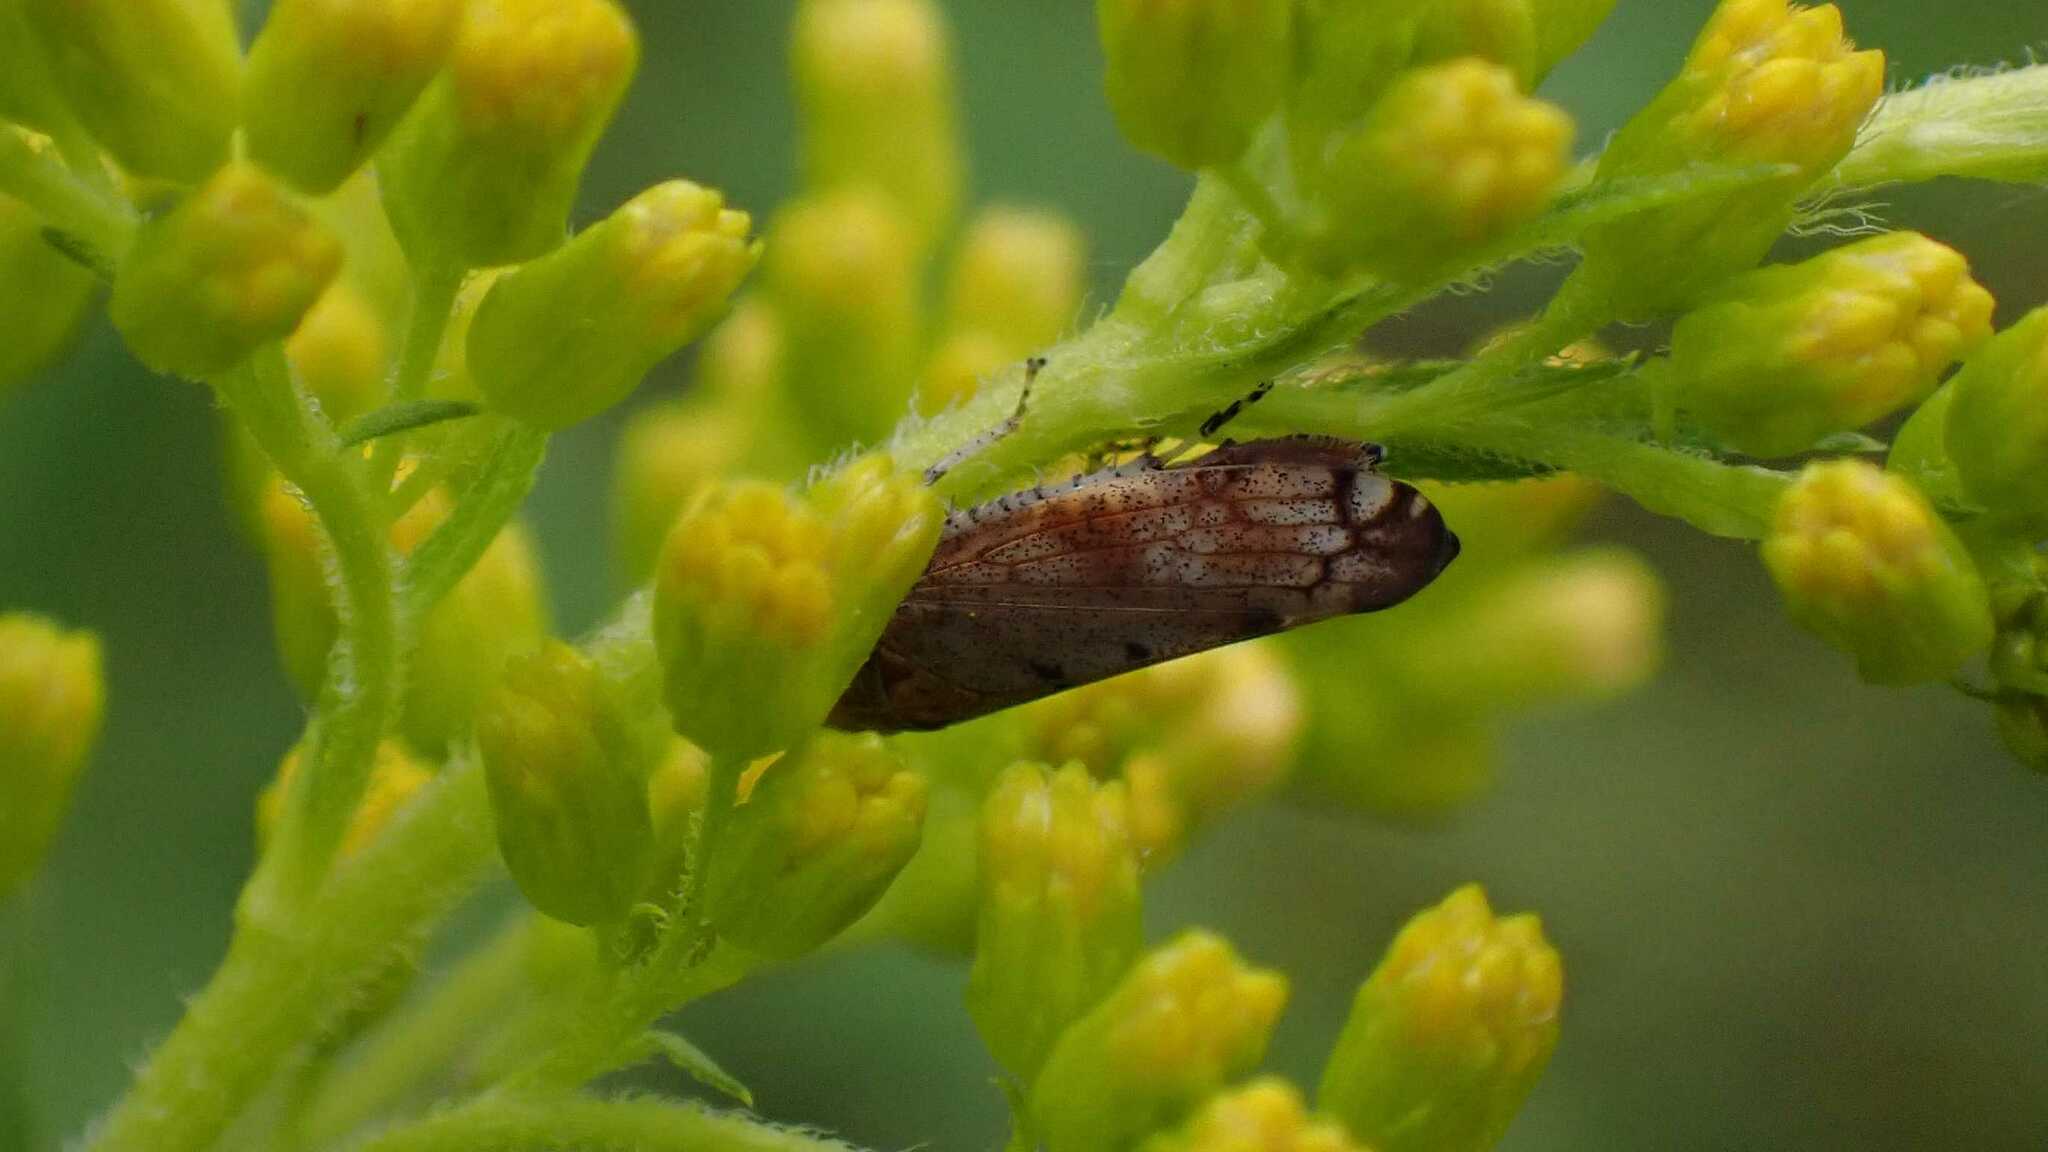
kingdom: Animalia
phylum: Arthropoda
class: Insecta
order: Hemiptera
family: Cicadellidae
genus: Fieberiella
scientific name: Fieberiella
